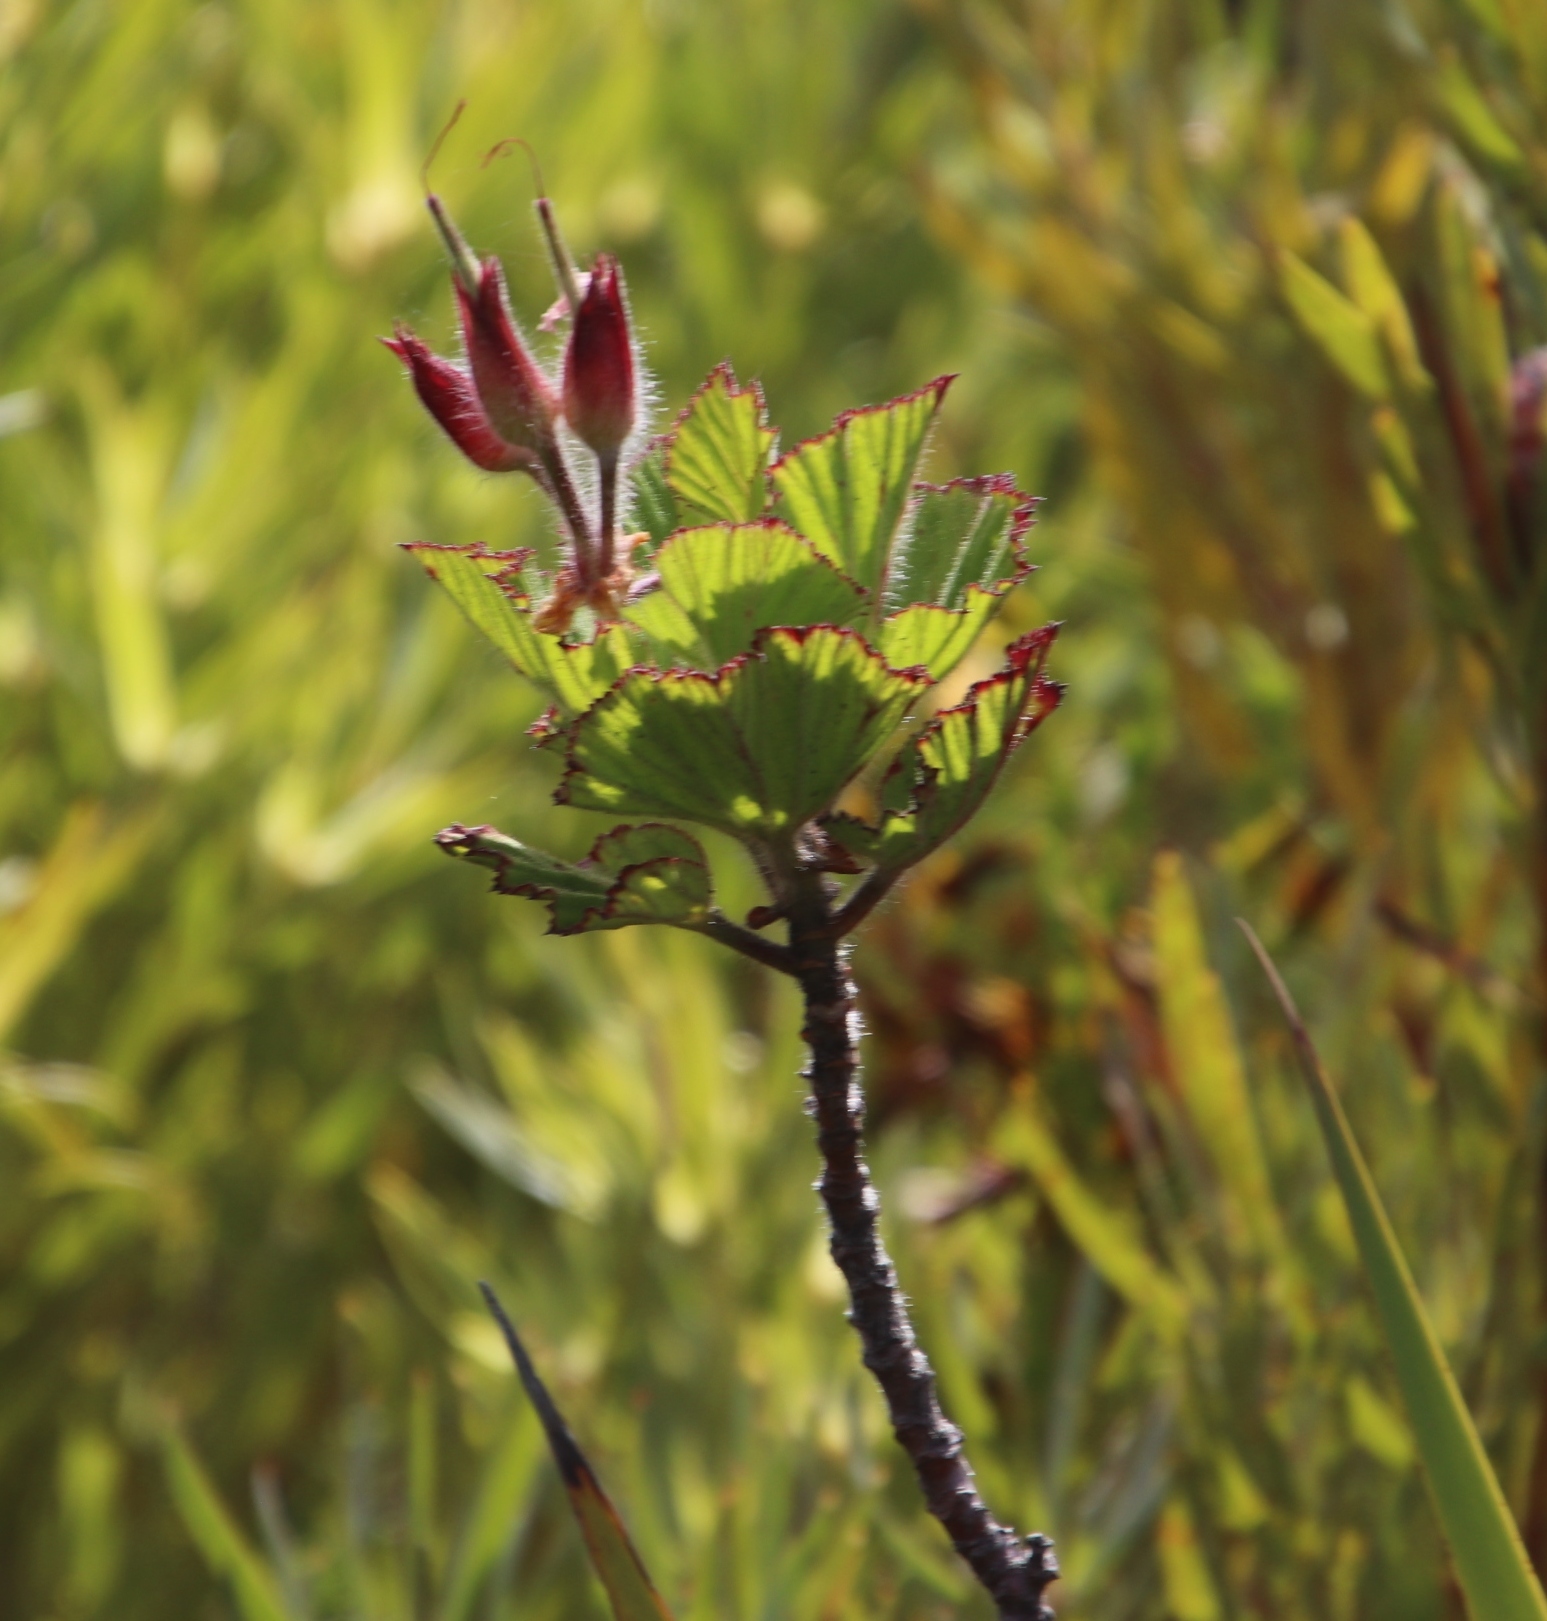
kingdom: Plantae
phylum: Tracheophyta
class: Magnoliopsida
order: Geraniales
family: Geraniaceae
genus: Pelargonium
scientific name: Pelargonium cucullatum
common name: Tree pelargonium
